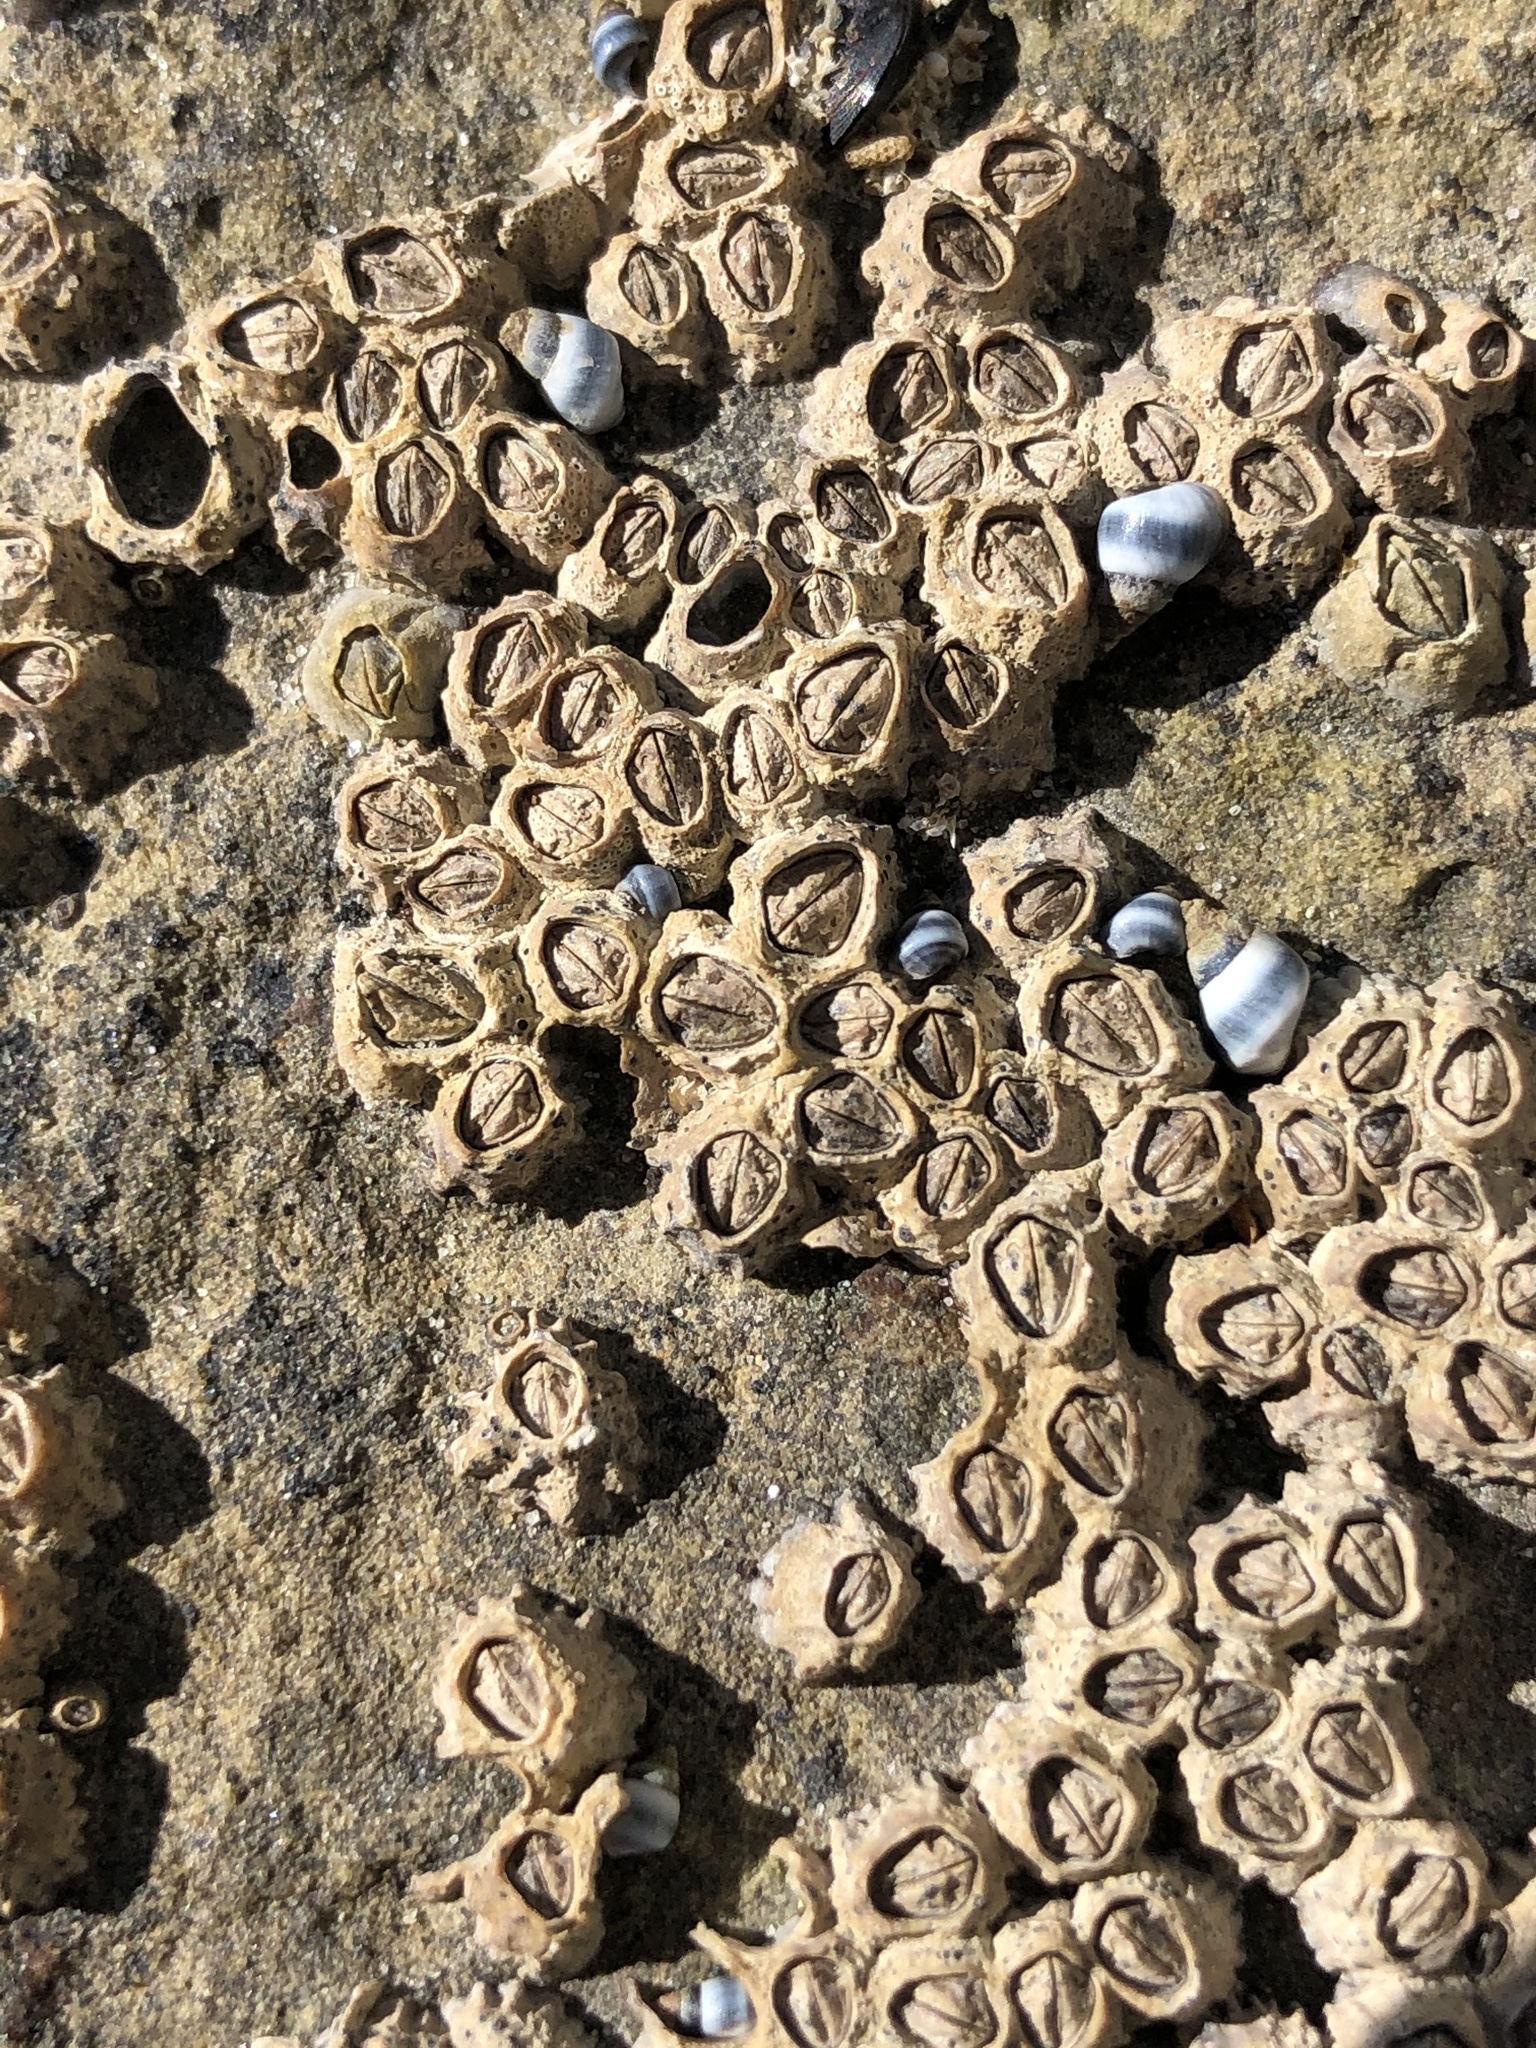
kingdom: Animalia
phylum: Arthropoda
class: Maxillopoda
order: Sessilia
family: Chthamalidae
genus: Chamaesipho
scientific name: Chamaesipho columna
